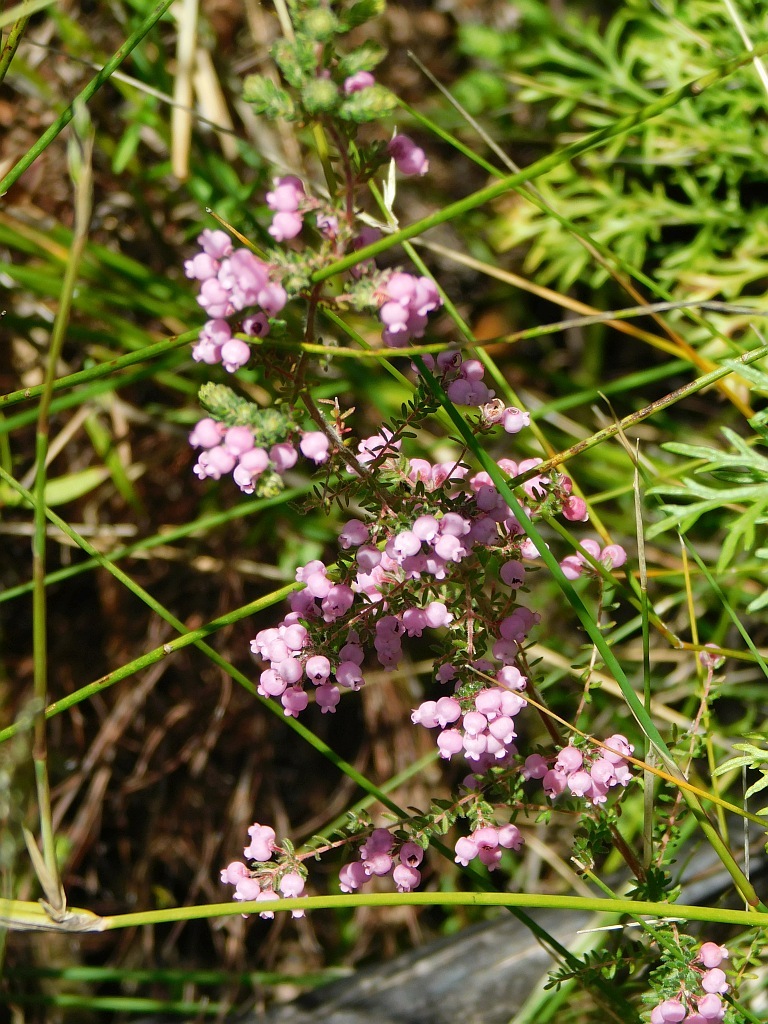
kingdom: Plantae
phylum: Tracheophyta
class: Magnoliopsida
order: Ericales
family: Ericaceae
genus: Erica
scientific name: Erica tomentosa
